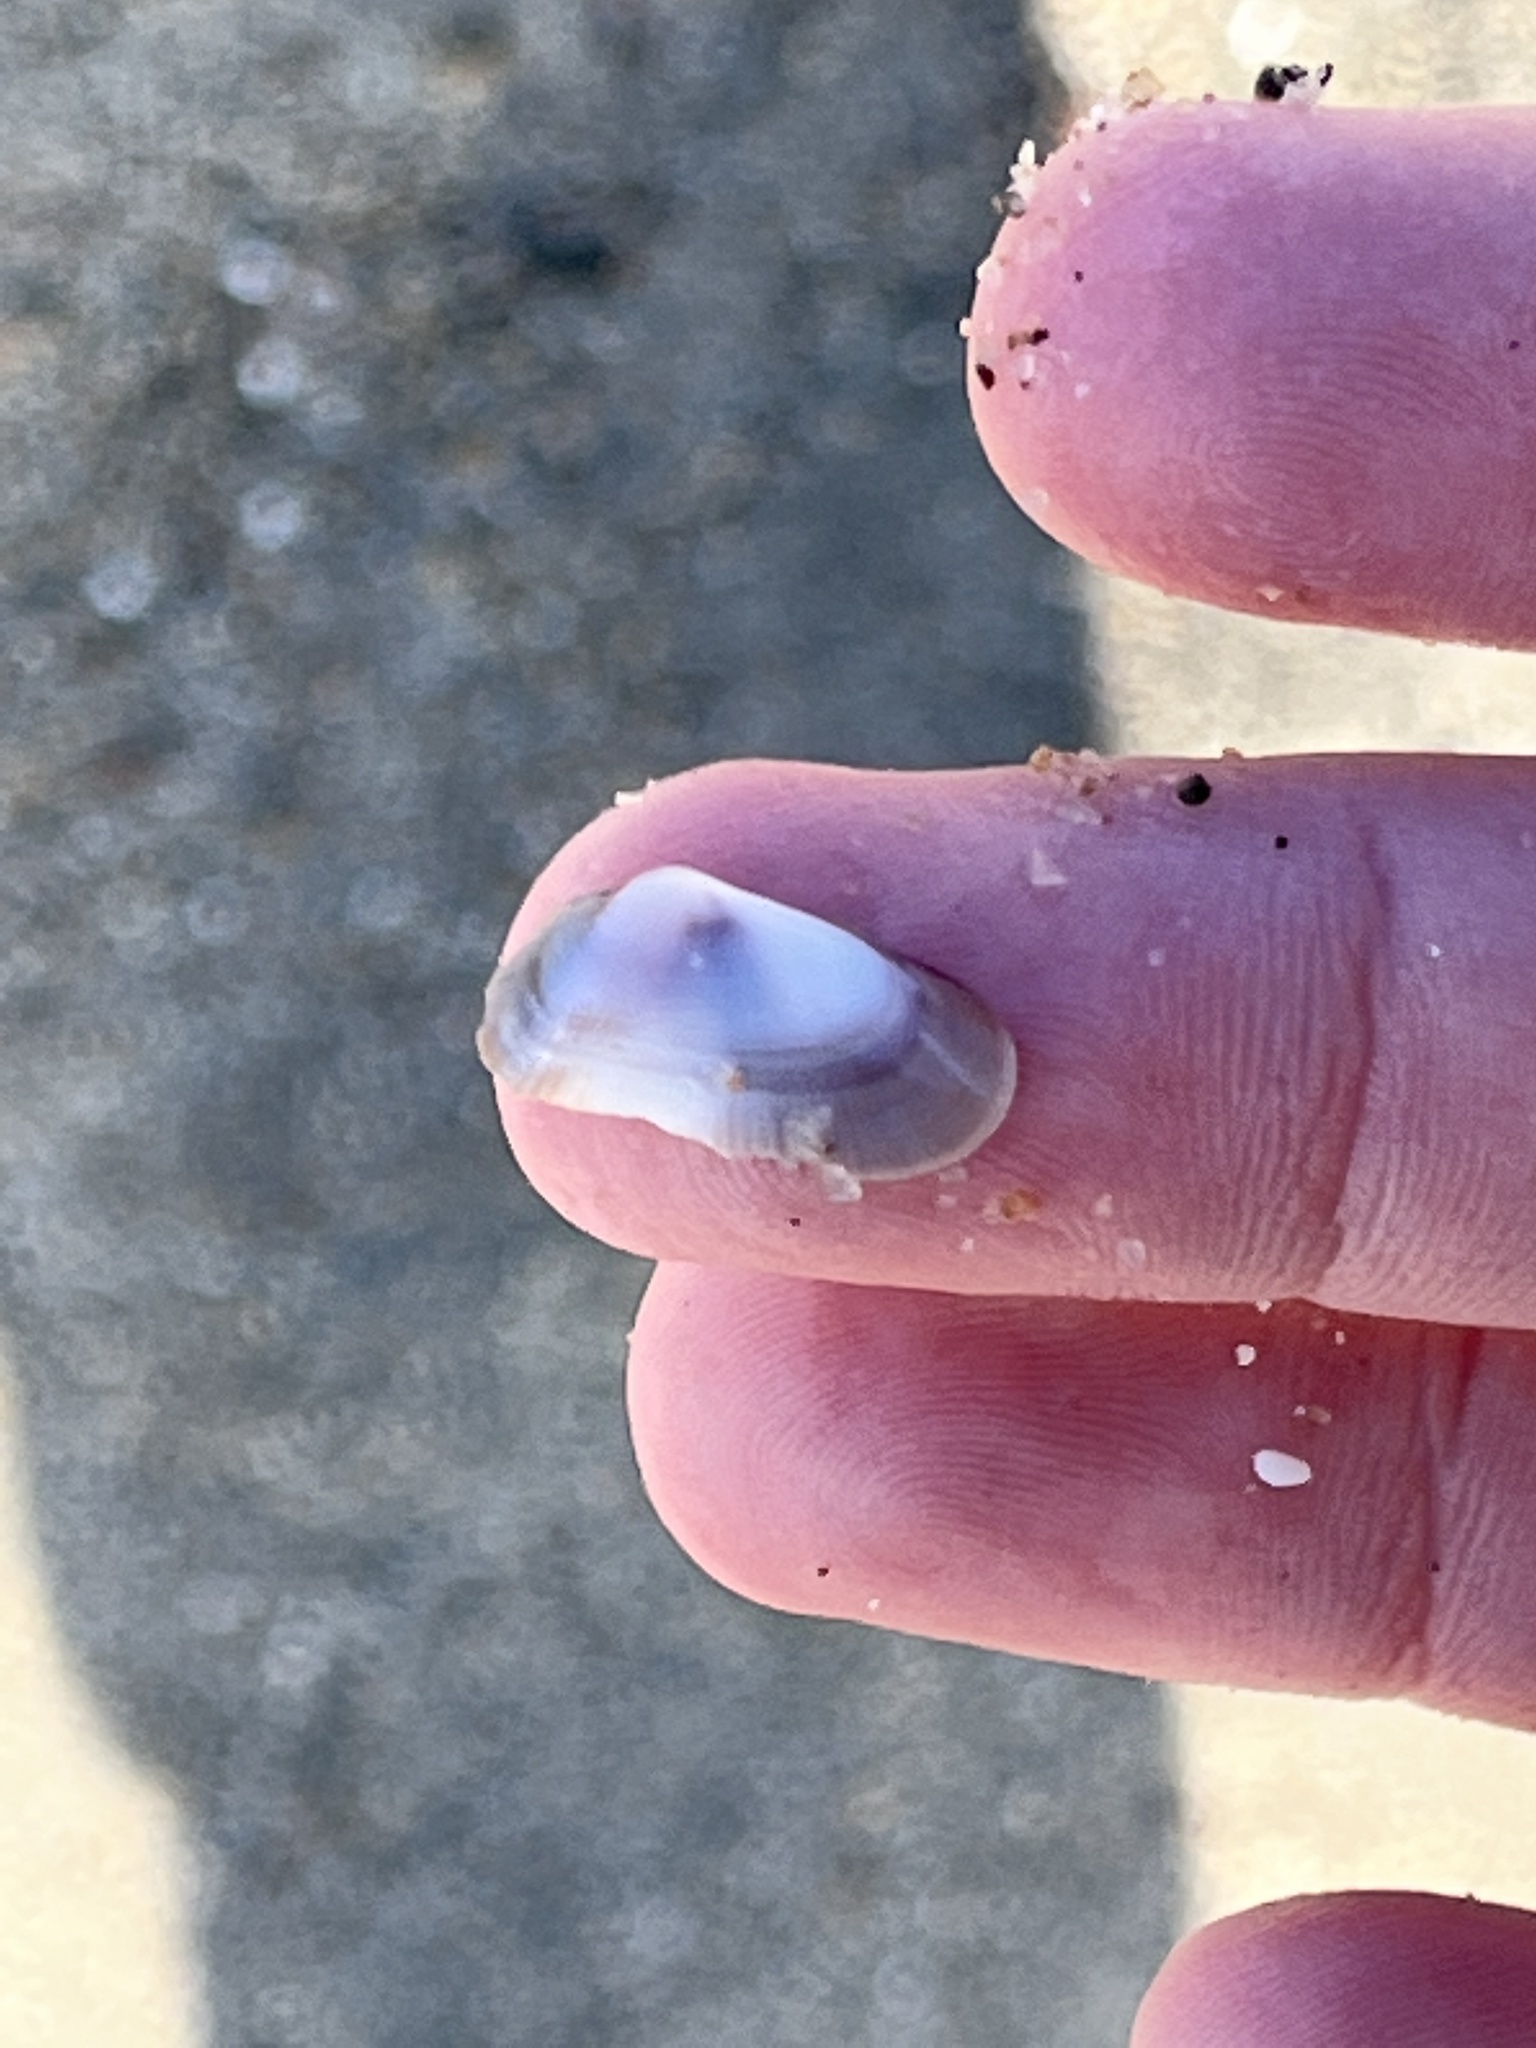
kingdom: Animalia
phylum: Mollusca
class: Bivalvia
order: Cardiida
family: Donacidae
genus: Donax
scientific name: Donax gouldii
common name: Gould beanclam
